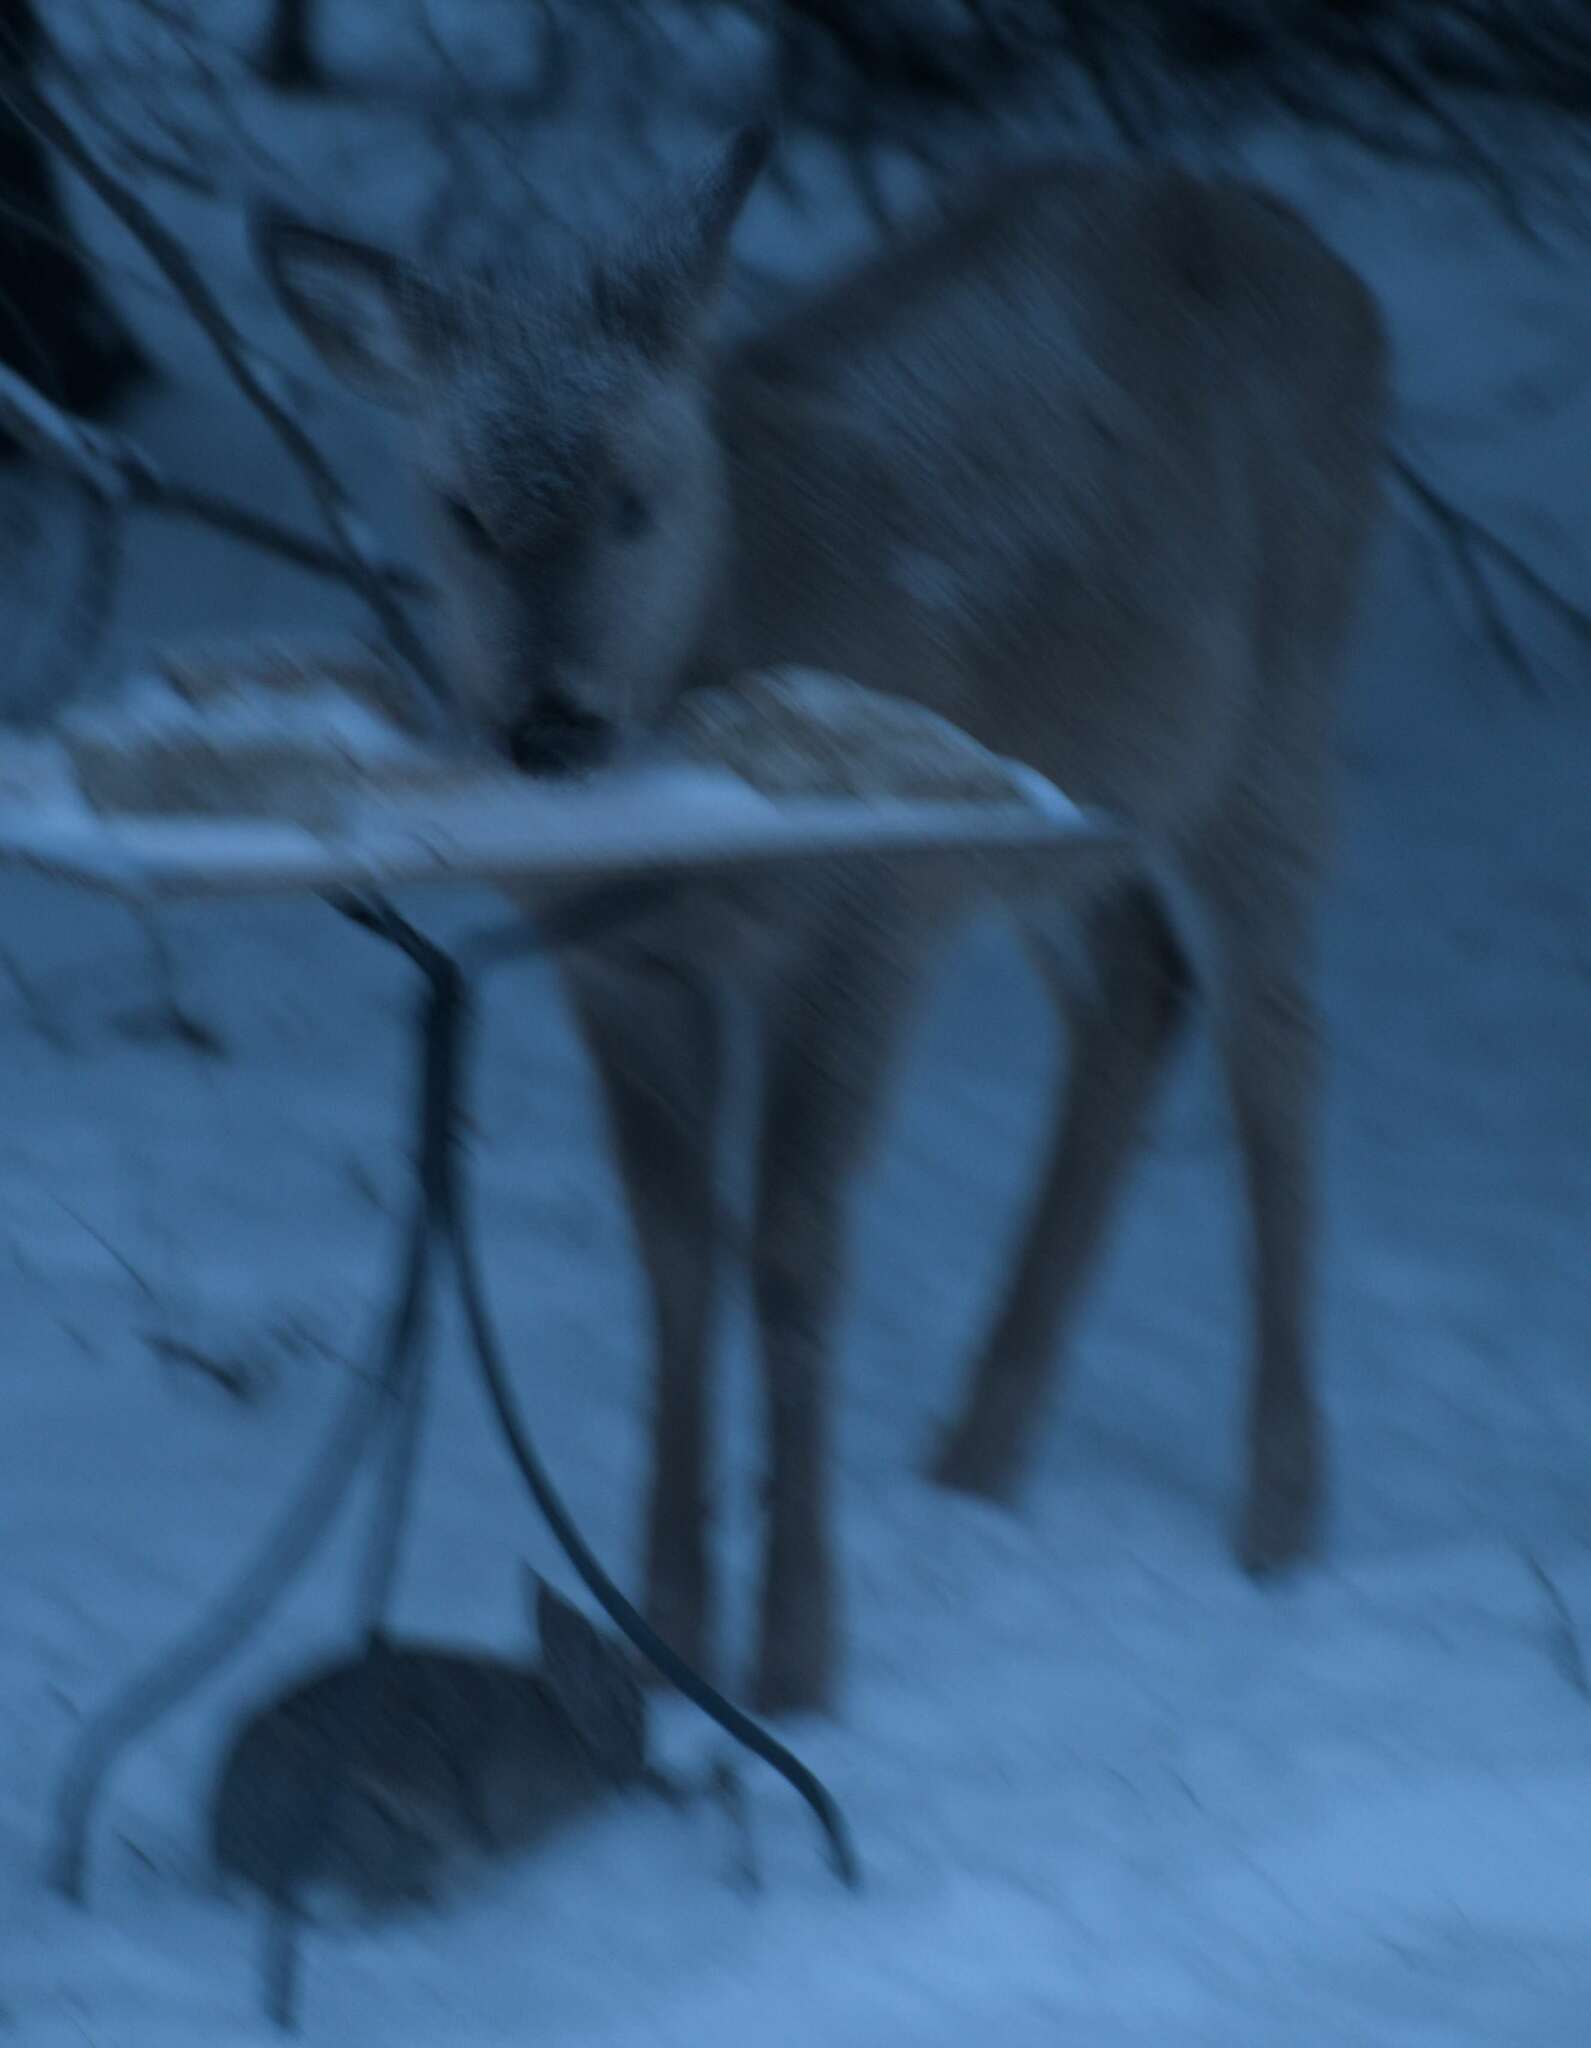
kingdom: Animalia
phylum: Chordata
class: Mammalia
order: Artiodactyla
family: Cervidae
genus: Odocoileus
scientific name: Odocoileus virginianus
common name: White-tailed deer
